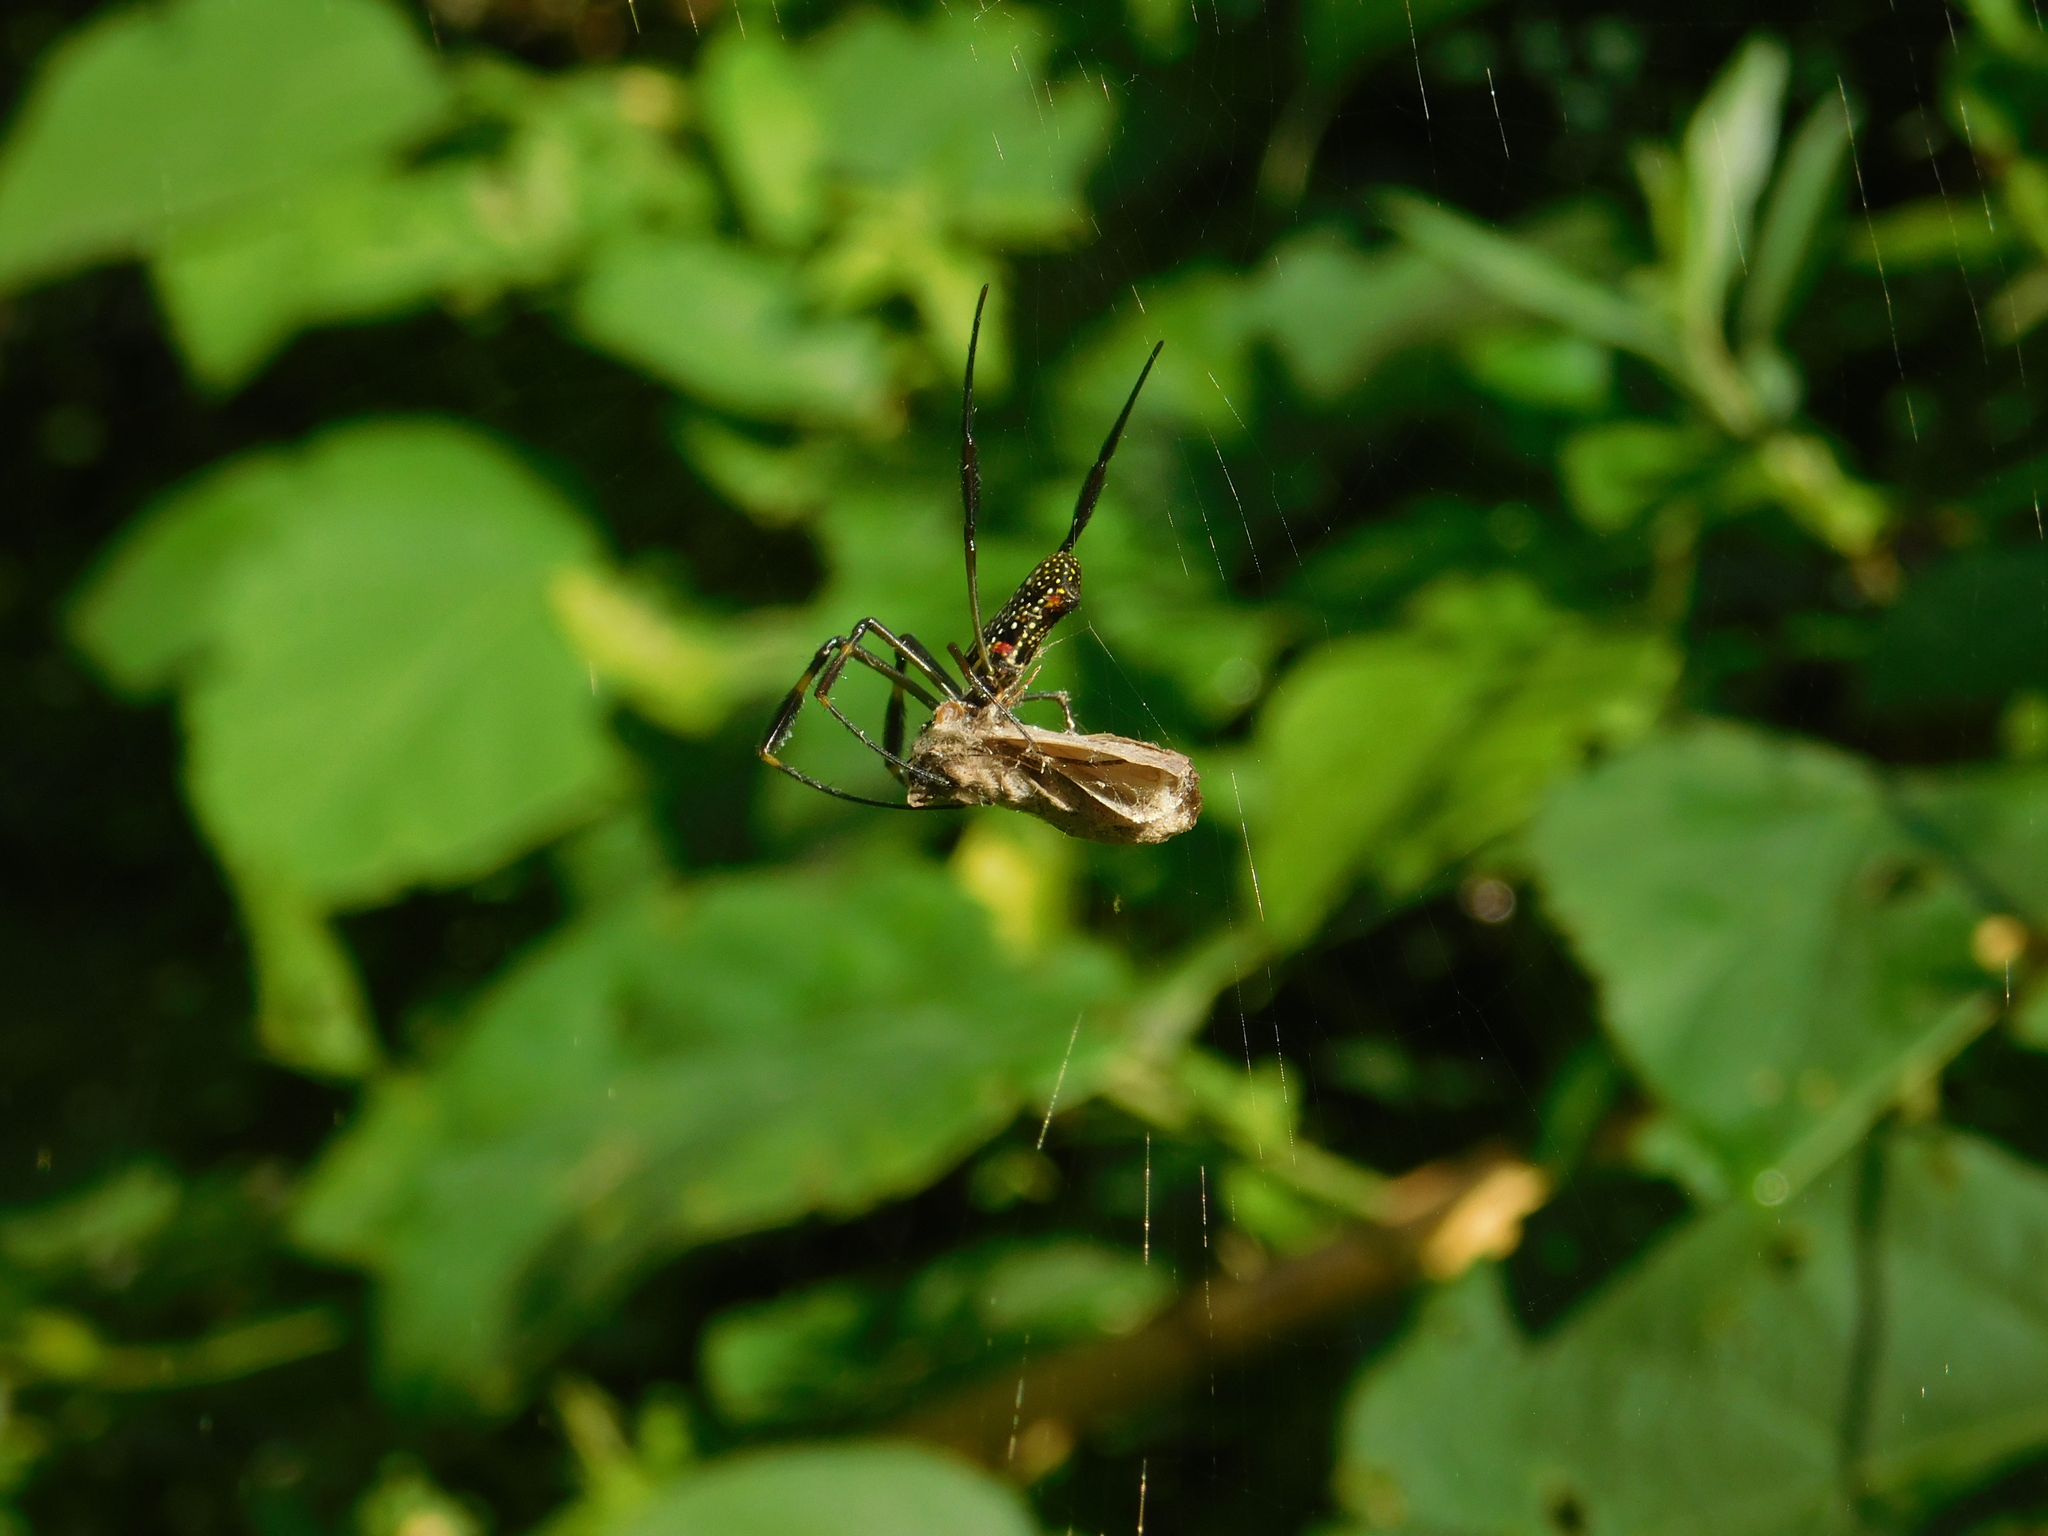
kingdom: Animalia
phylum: Arthropoda
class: Arachnida
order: Araneae
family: Araneidae
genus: Trichonephila
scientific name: Trichonephila clavipes
